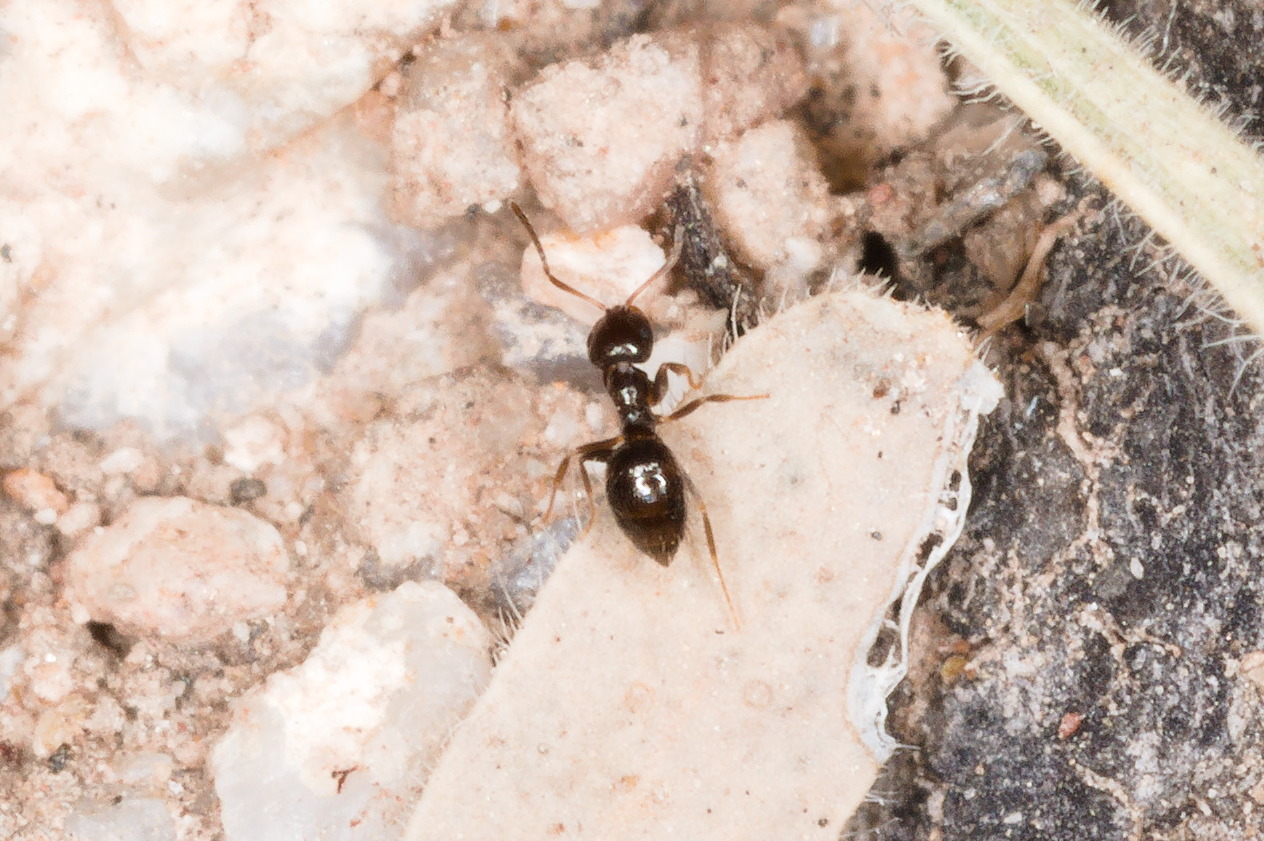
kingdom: Animalia
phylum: Arthropoda
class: Insecta
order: Hymenoptera
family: Formicidae
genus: Brachymyrmex
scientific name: Brachymyrmex patagonicus
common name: Dark rover ant
